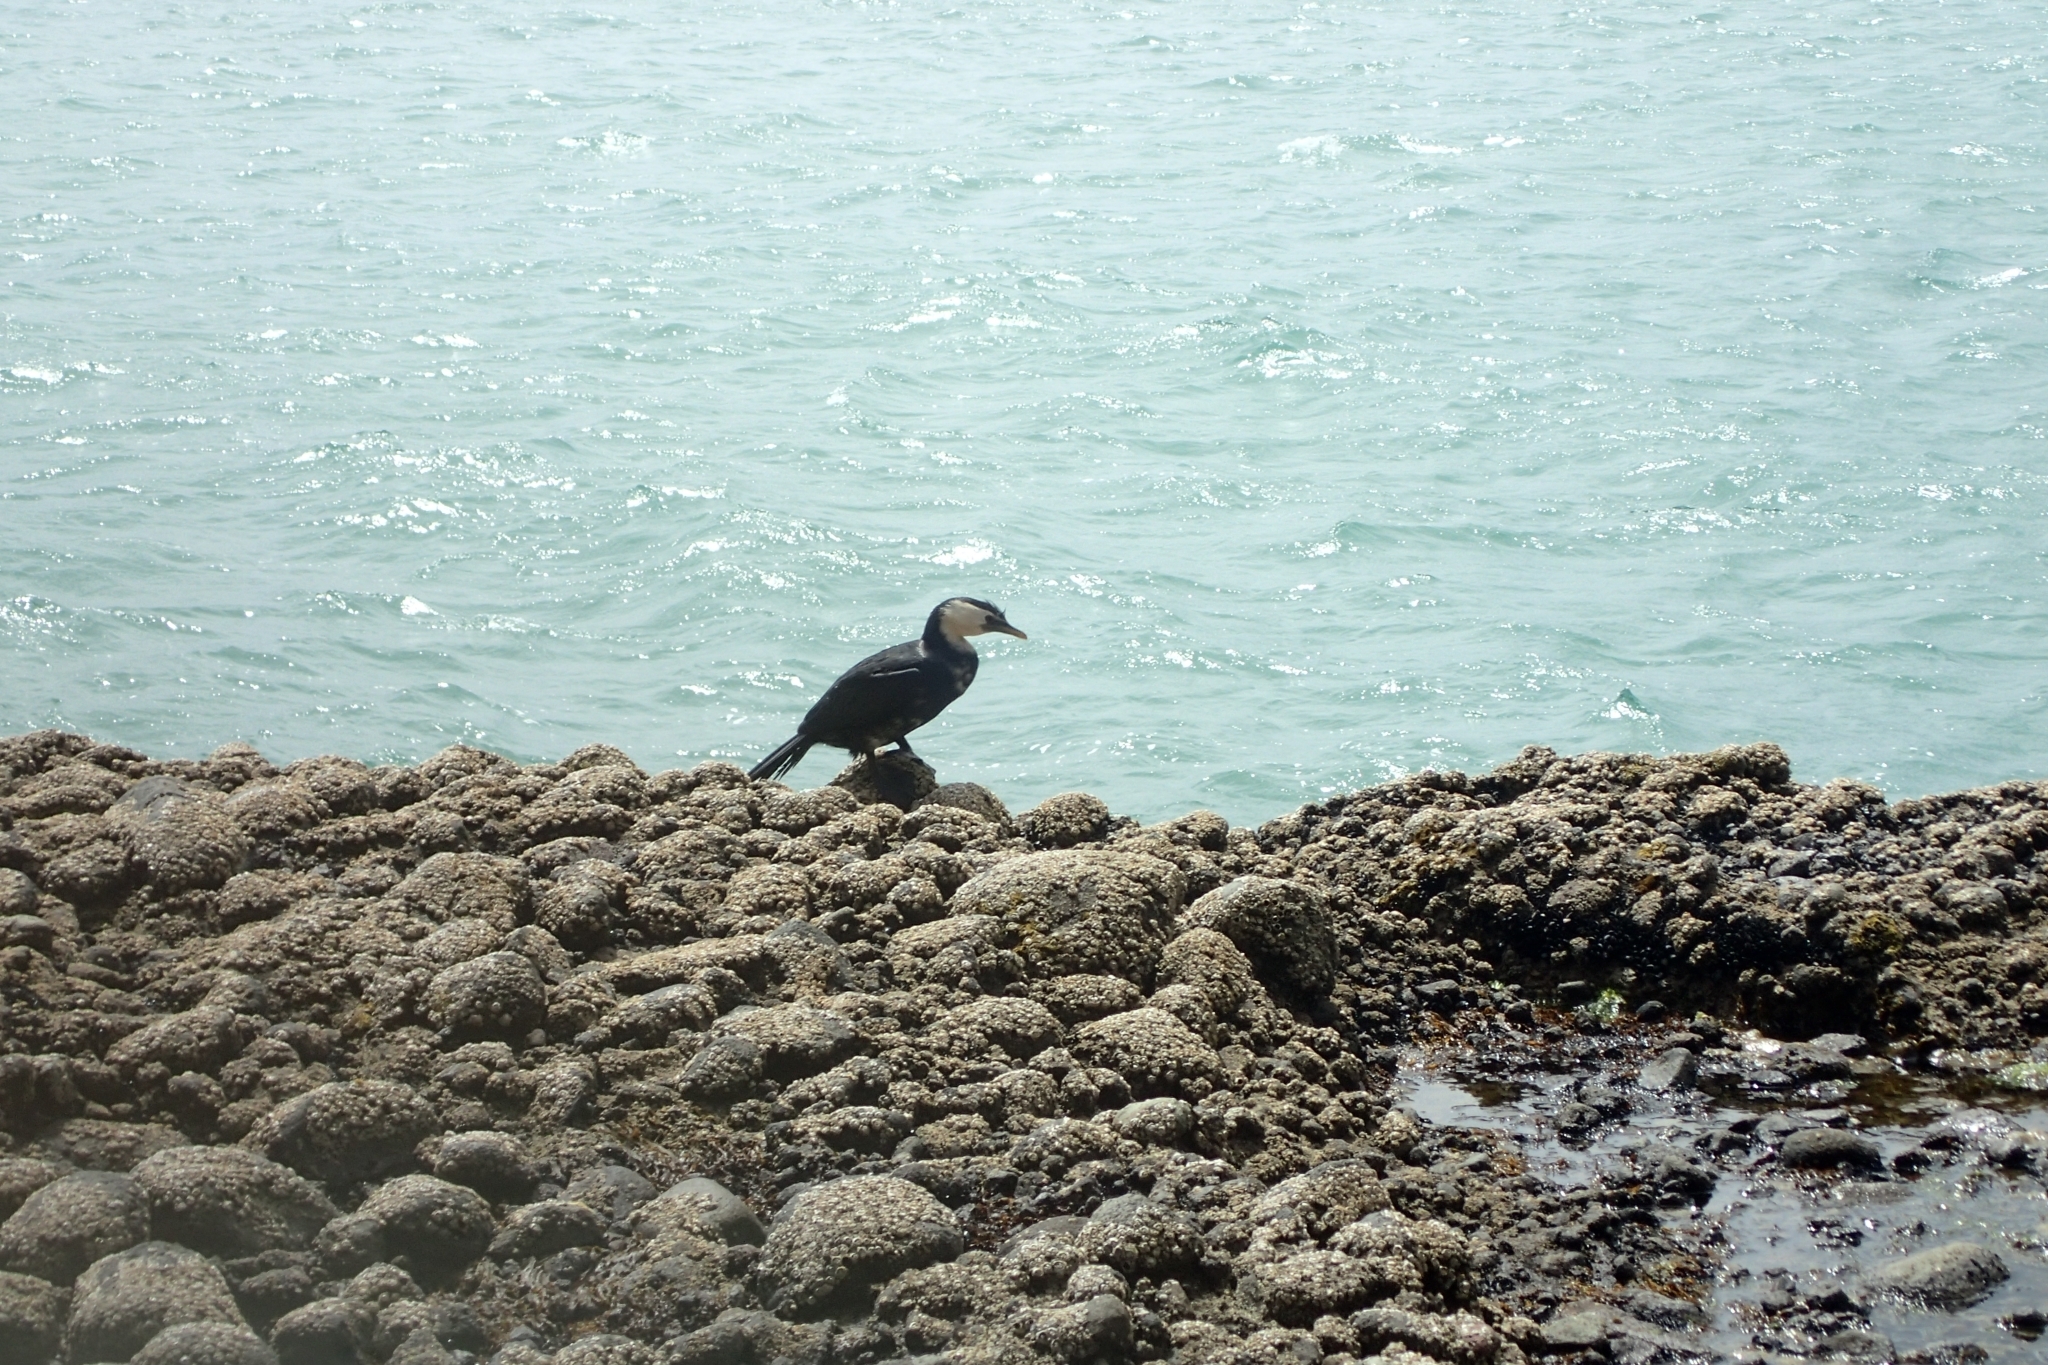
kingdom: Animalia
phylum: Chordata
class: Aves
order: Suliformes
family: Phalacrocoracidae
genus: Microcarbo
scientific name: Microcarbo melanoleucos
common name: Little pied cormorant
